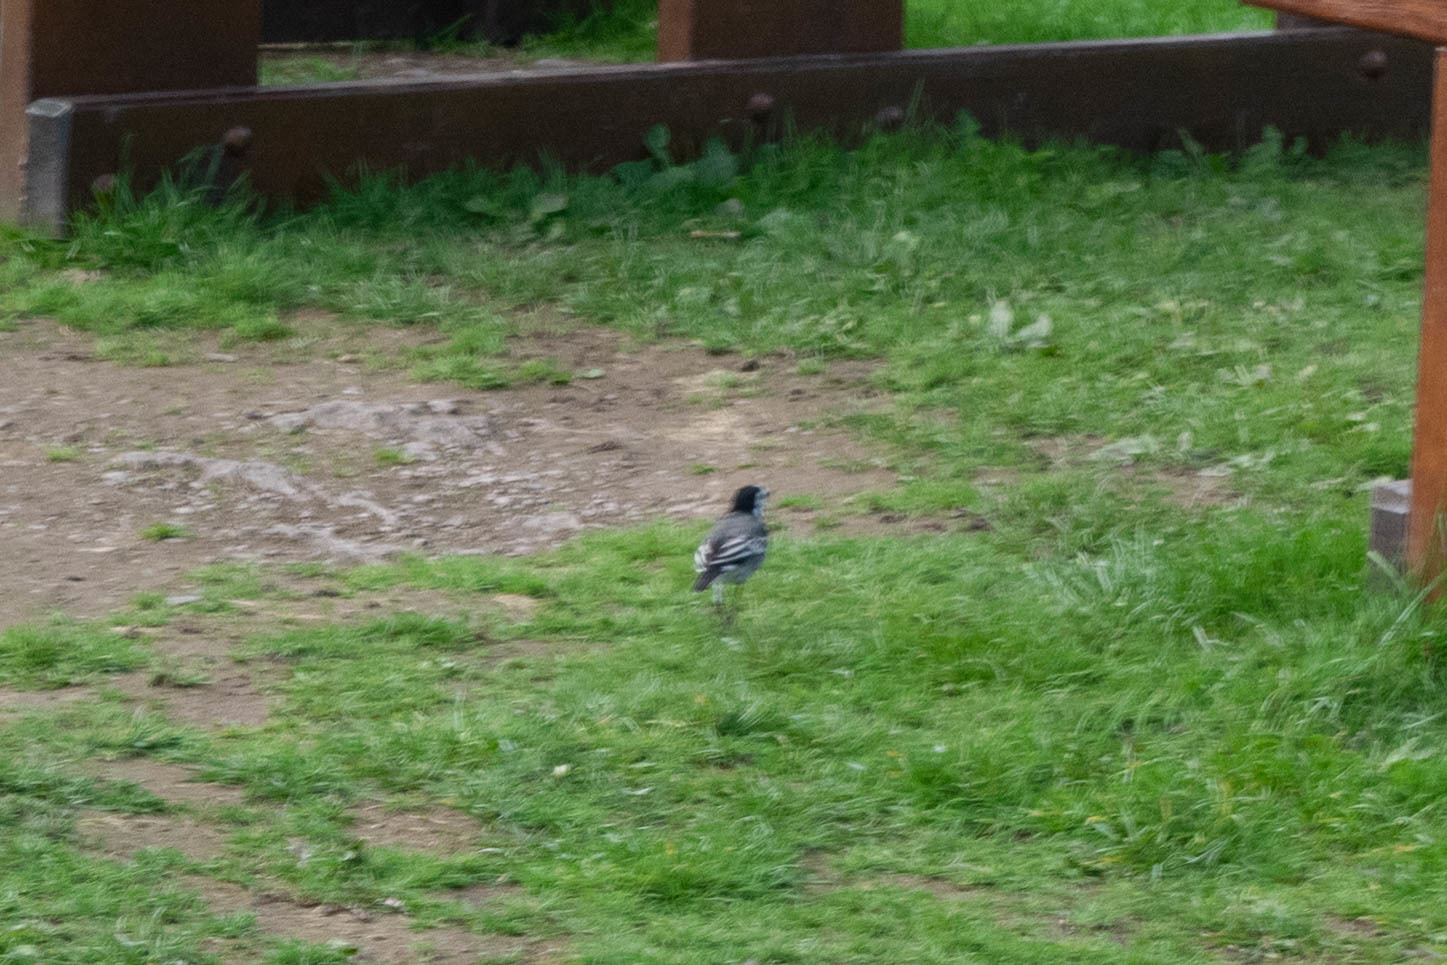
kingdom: Animalia
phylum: Chordata
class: Aves
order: Passeriformes
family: Motacillidae
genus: Motacilla
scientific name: Motacilla alba
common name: White wagtail
